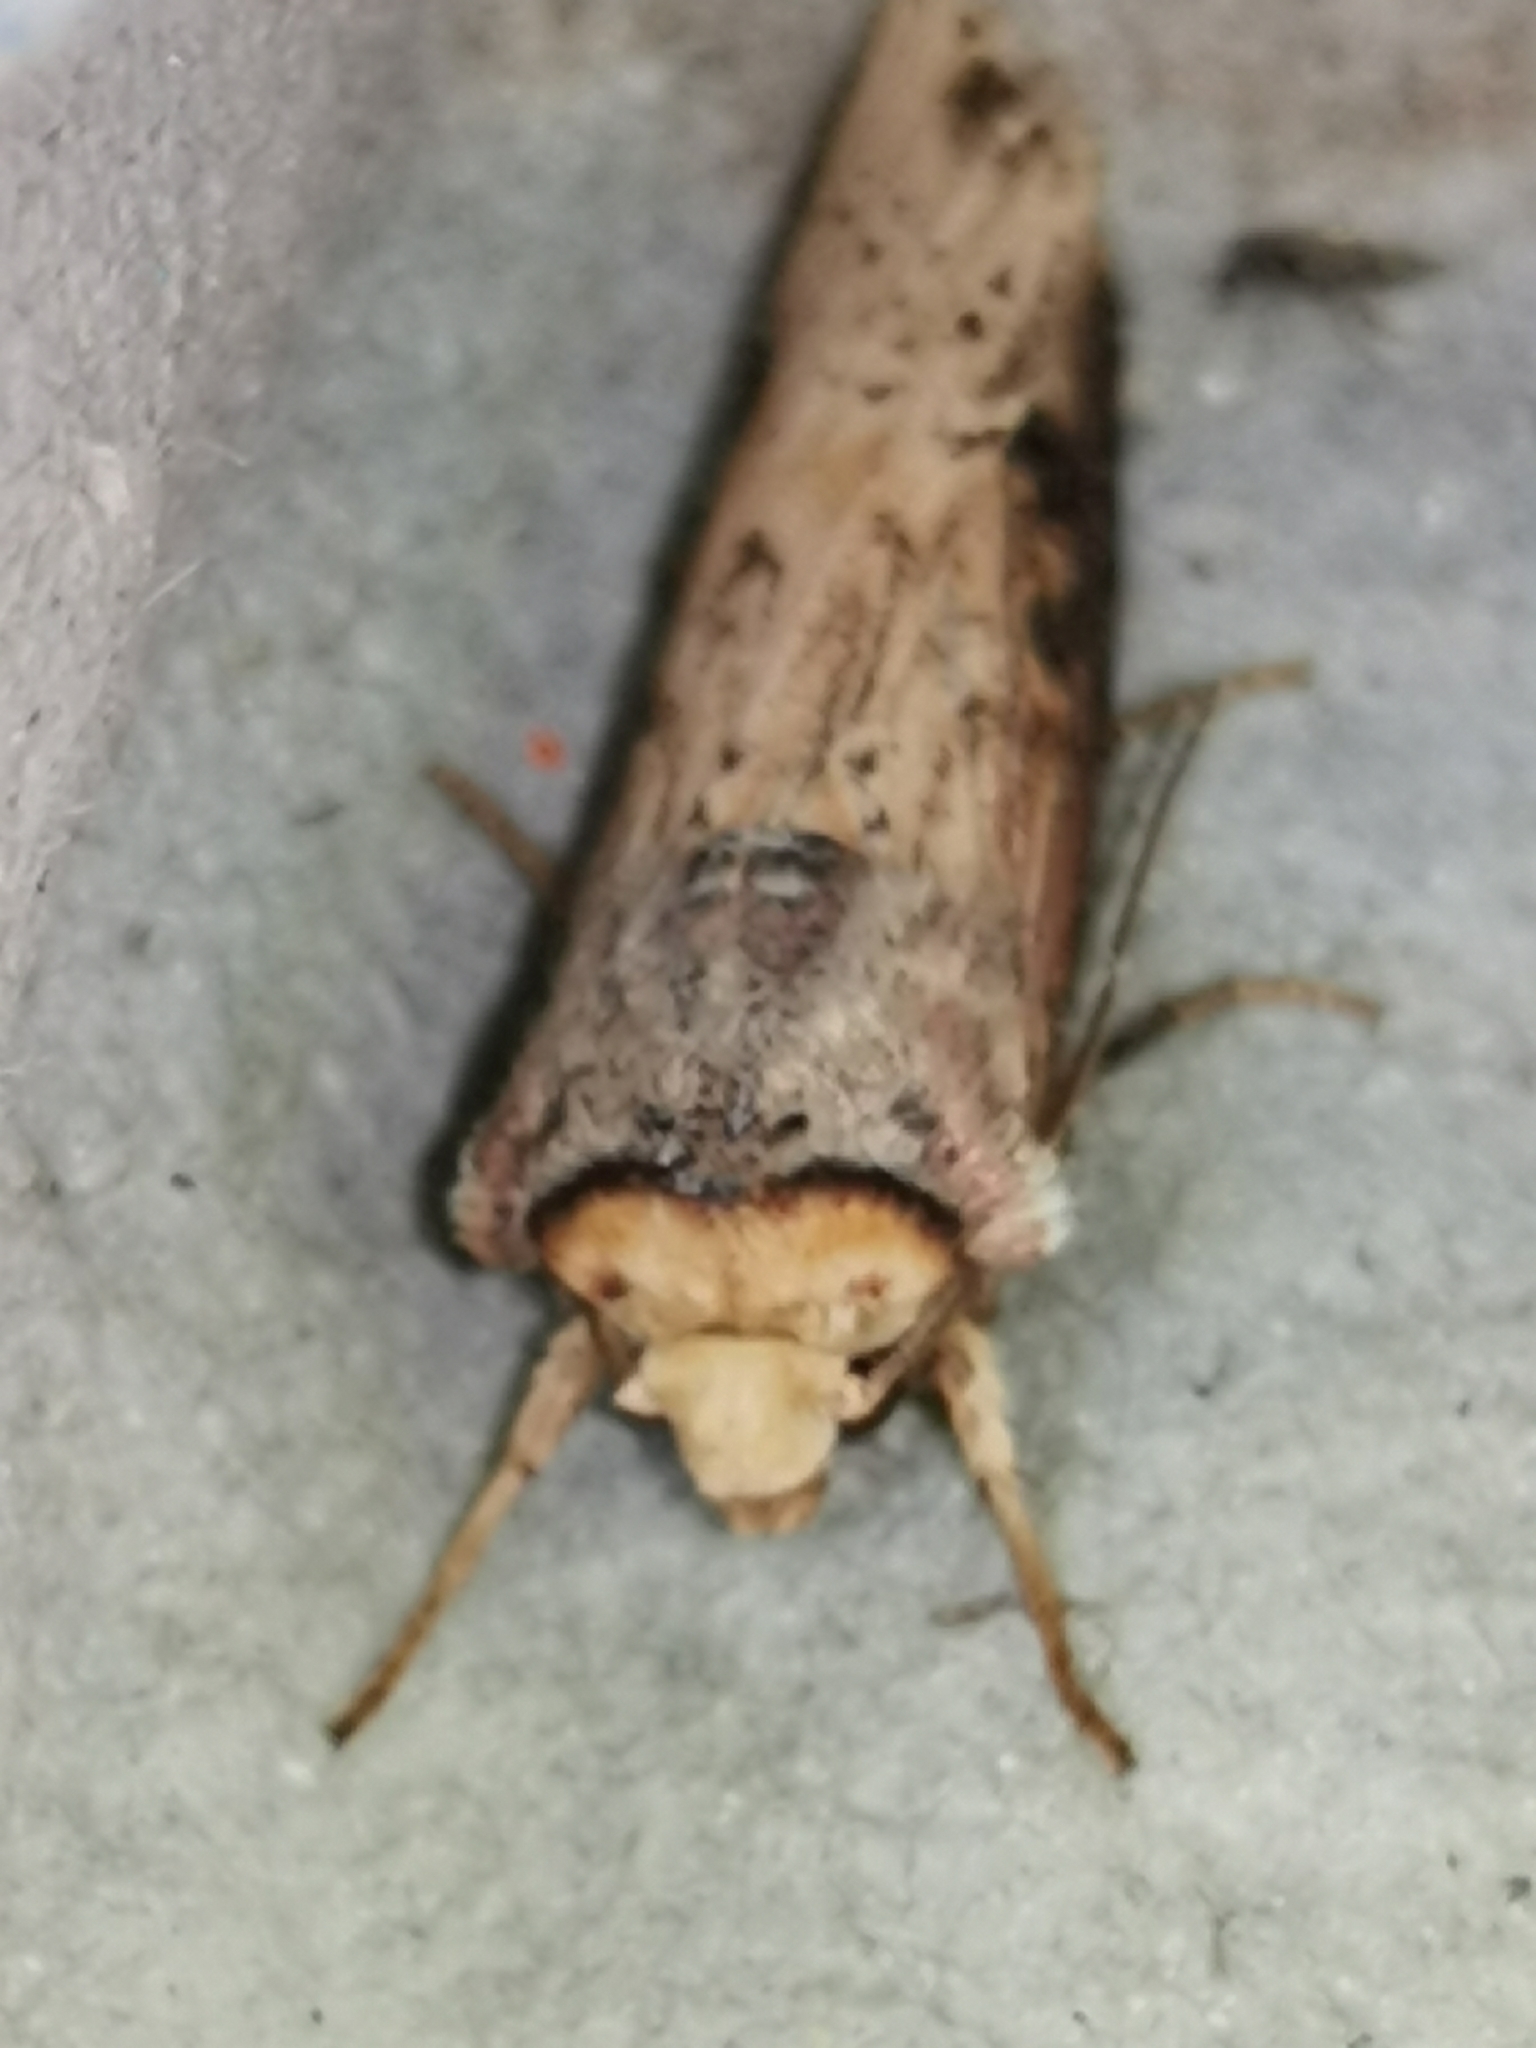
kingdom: Animalia
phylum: Arthropoda
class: Insecta
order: Lepidoptera
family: Noctuidae
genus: Axylia
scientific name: Axylia putris
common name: Flame
